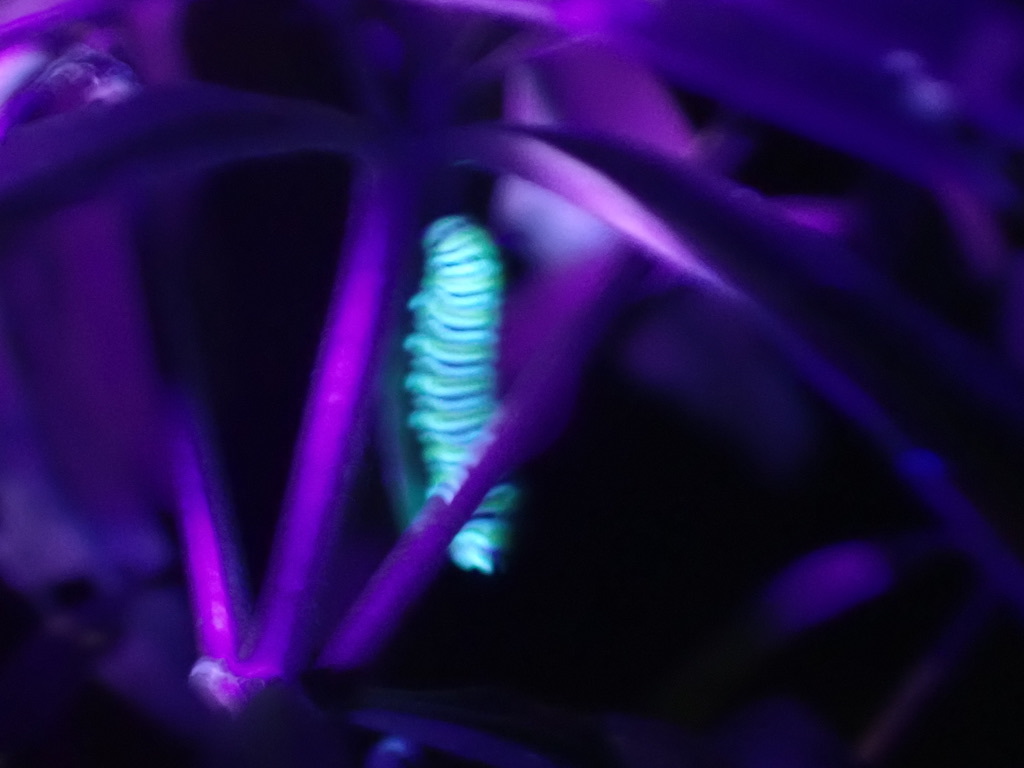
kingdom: Animalia
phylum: Arthropoda
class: Insecta
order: Lepidoptera
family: Nymphalidae
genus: Danaus
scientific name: Danaus plexippus
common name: Monarch
